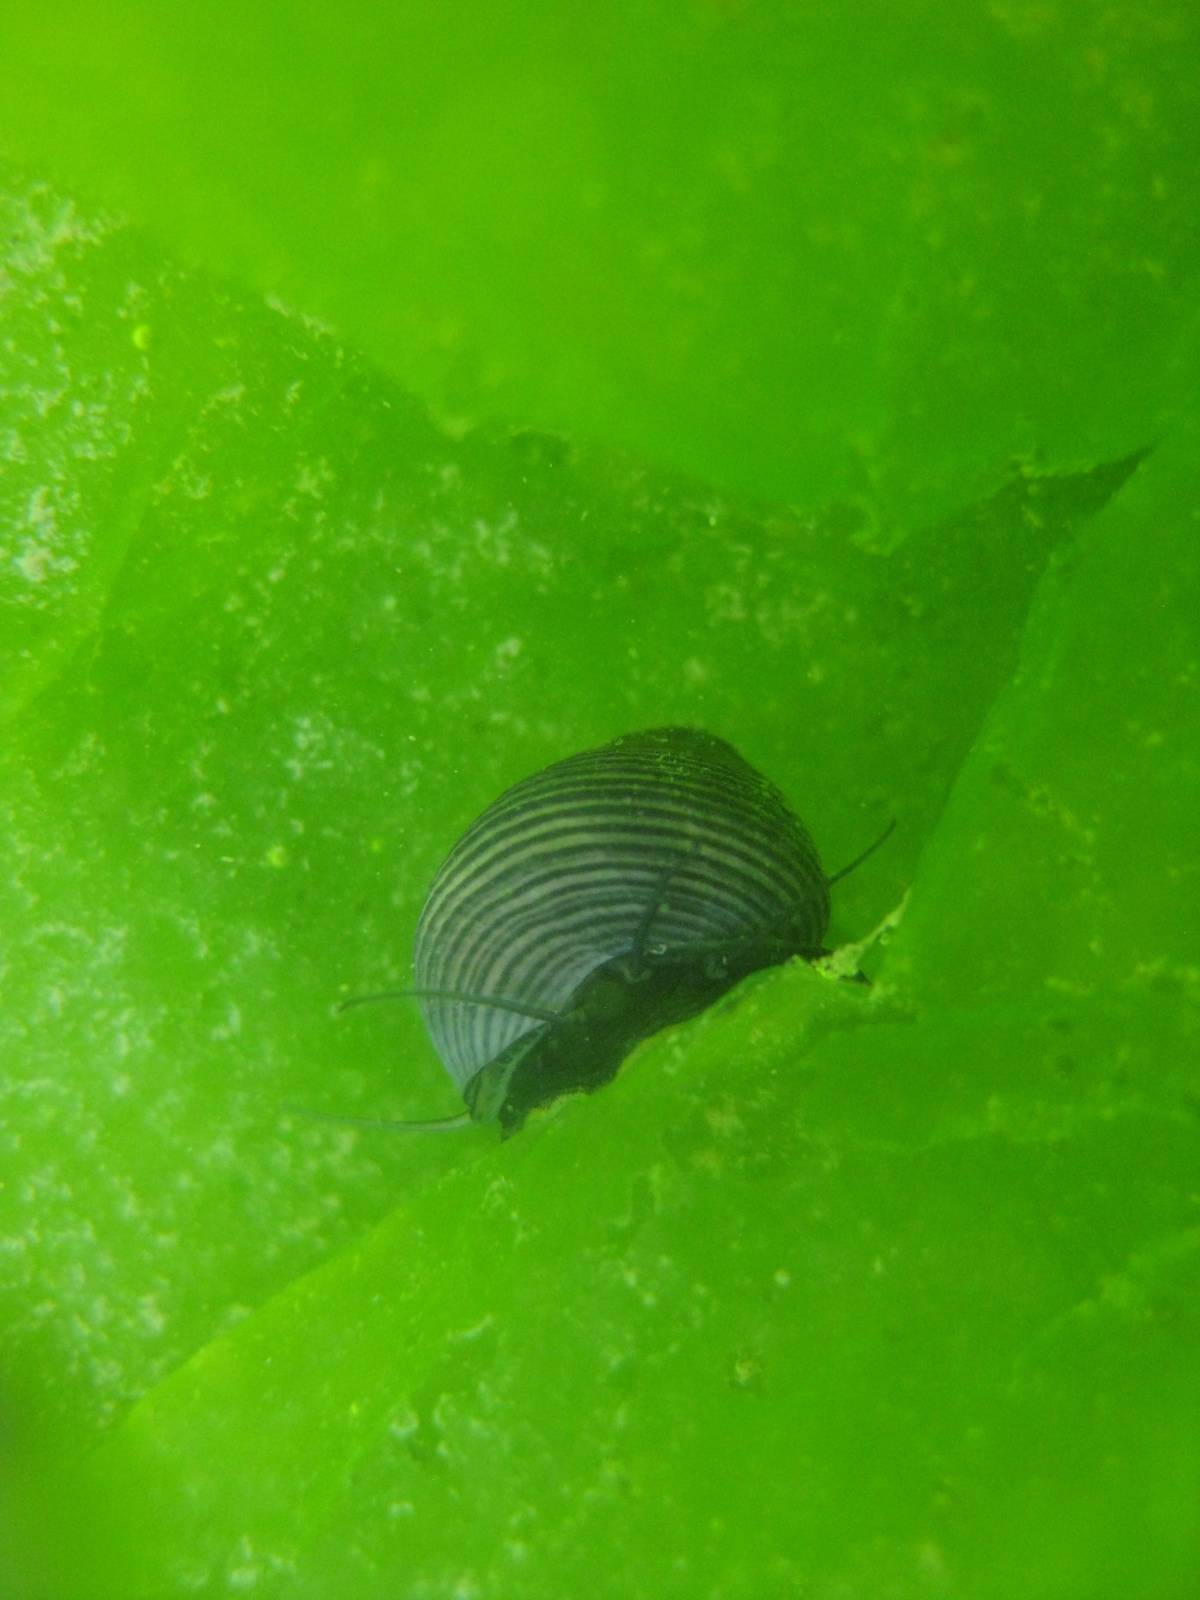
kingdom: Animalia
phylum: Mollusca
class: Gastropoda
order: Trochida
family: Trochidae
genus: Micrelenchus
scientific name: Micrelenchus huttonii
